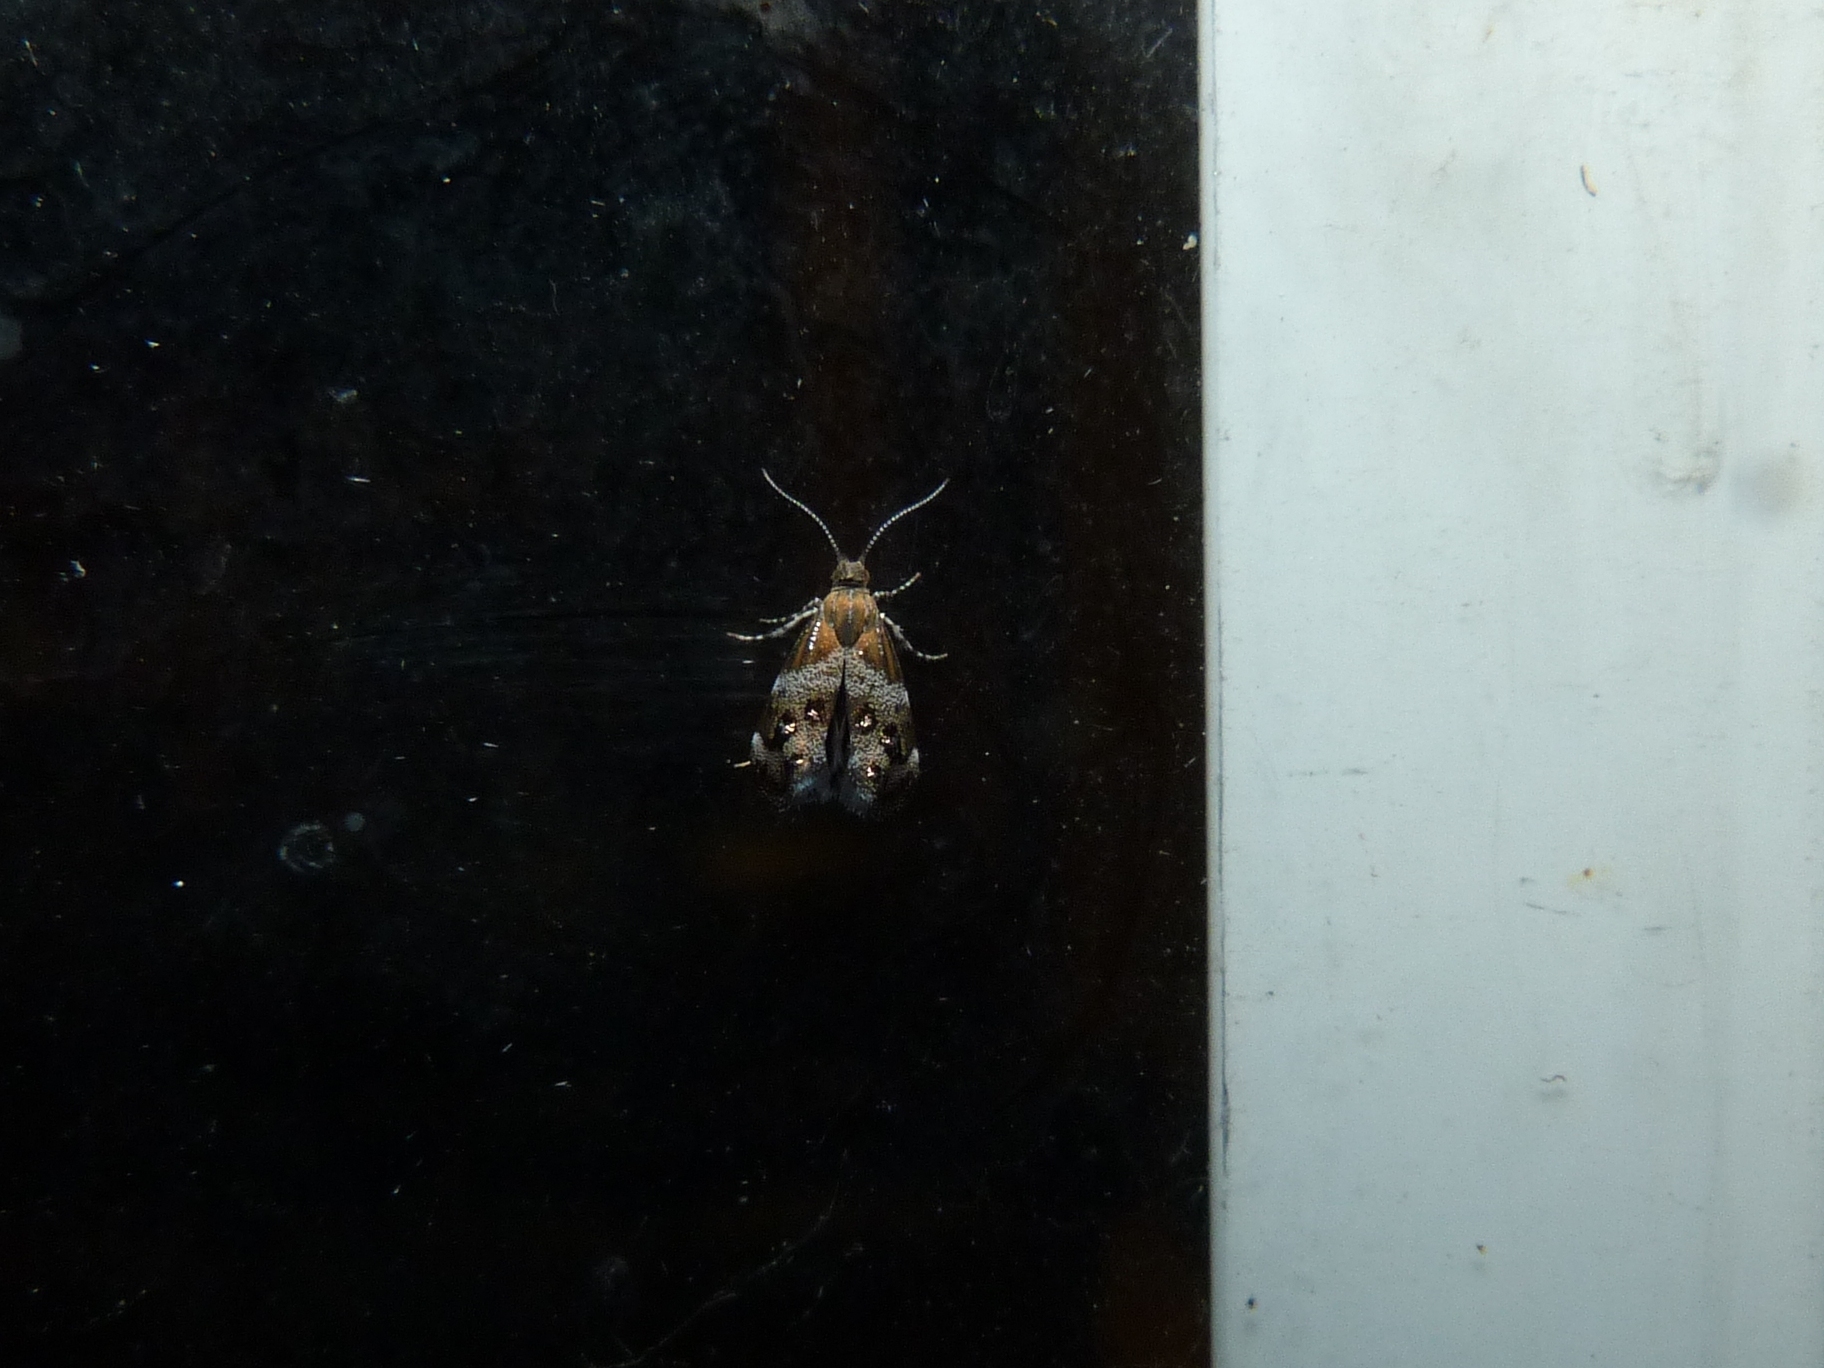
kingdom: Animalia
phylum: Arthropoda
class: Insecta
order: Lepidoptera
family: Choreutidae
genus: Tebenna
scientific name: Tebenna micalis
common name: Vagrant twitcher
